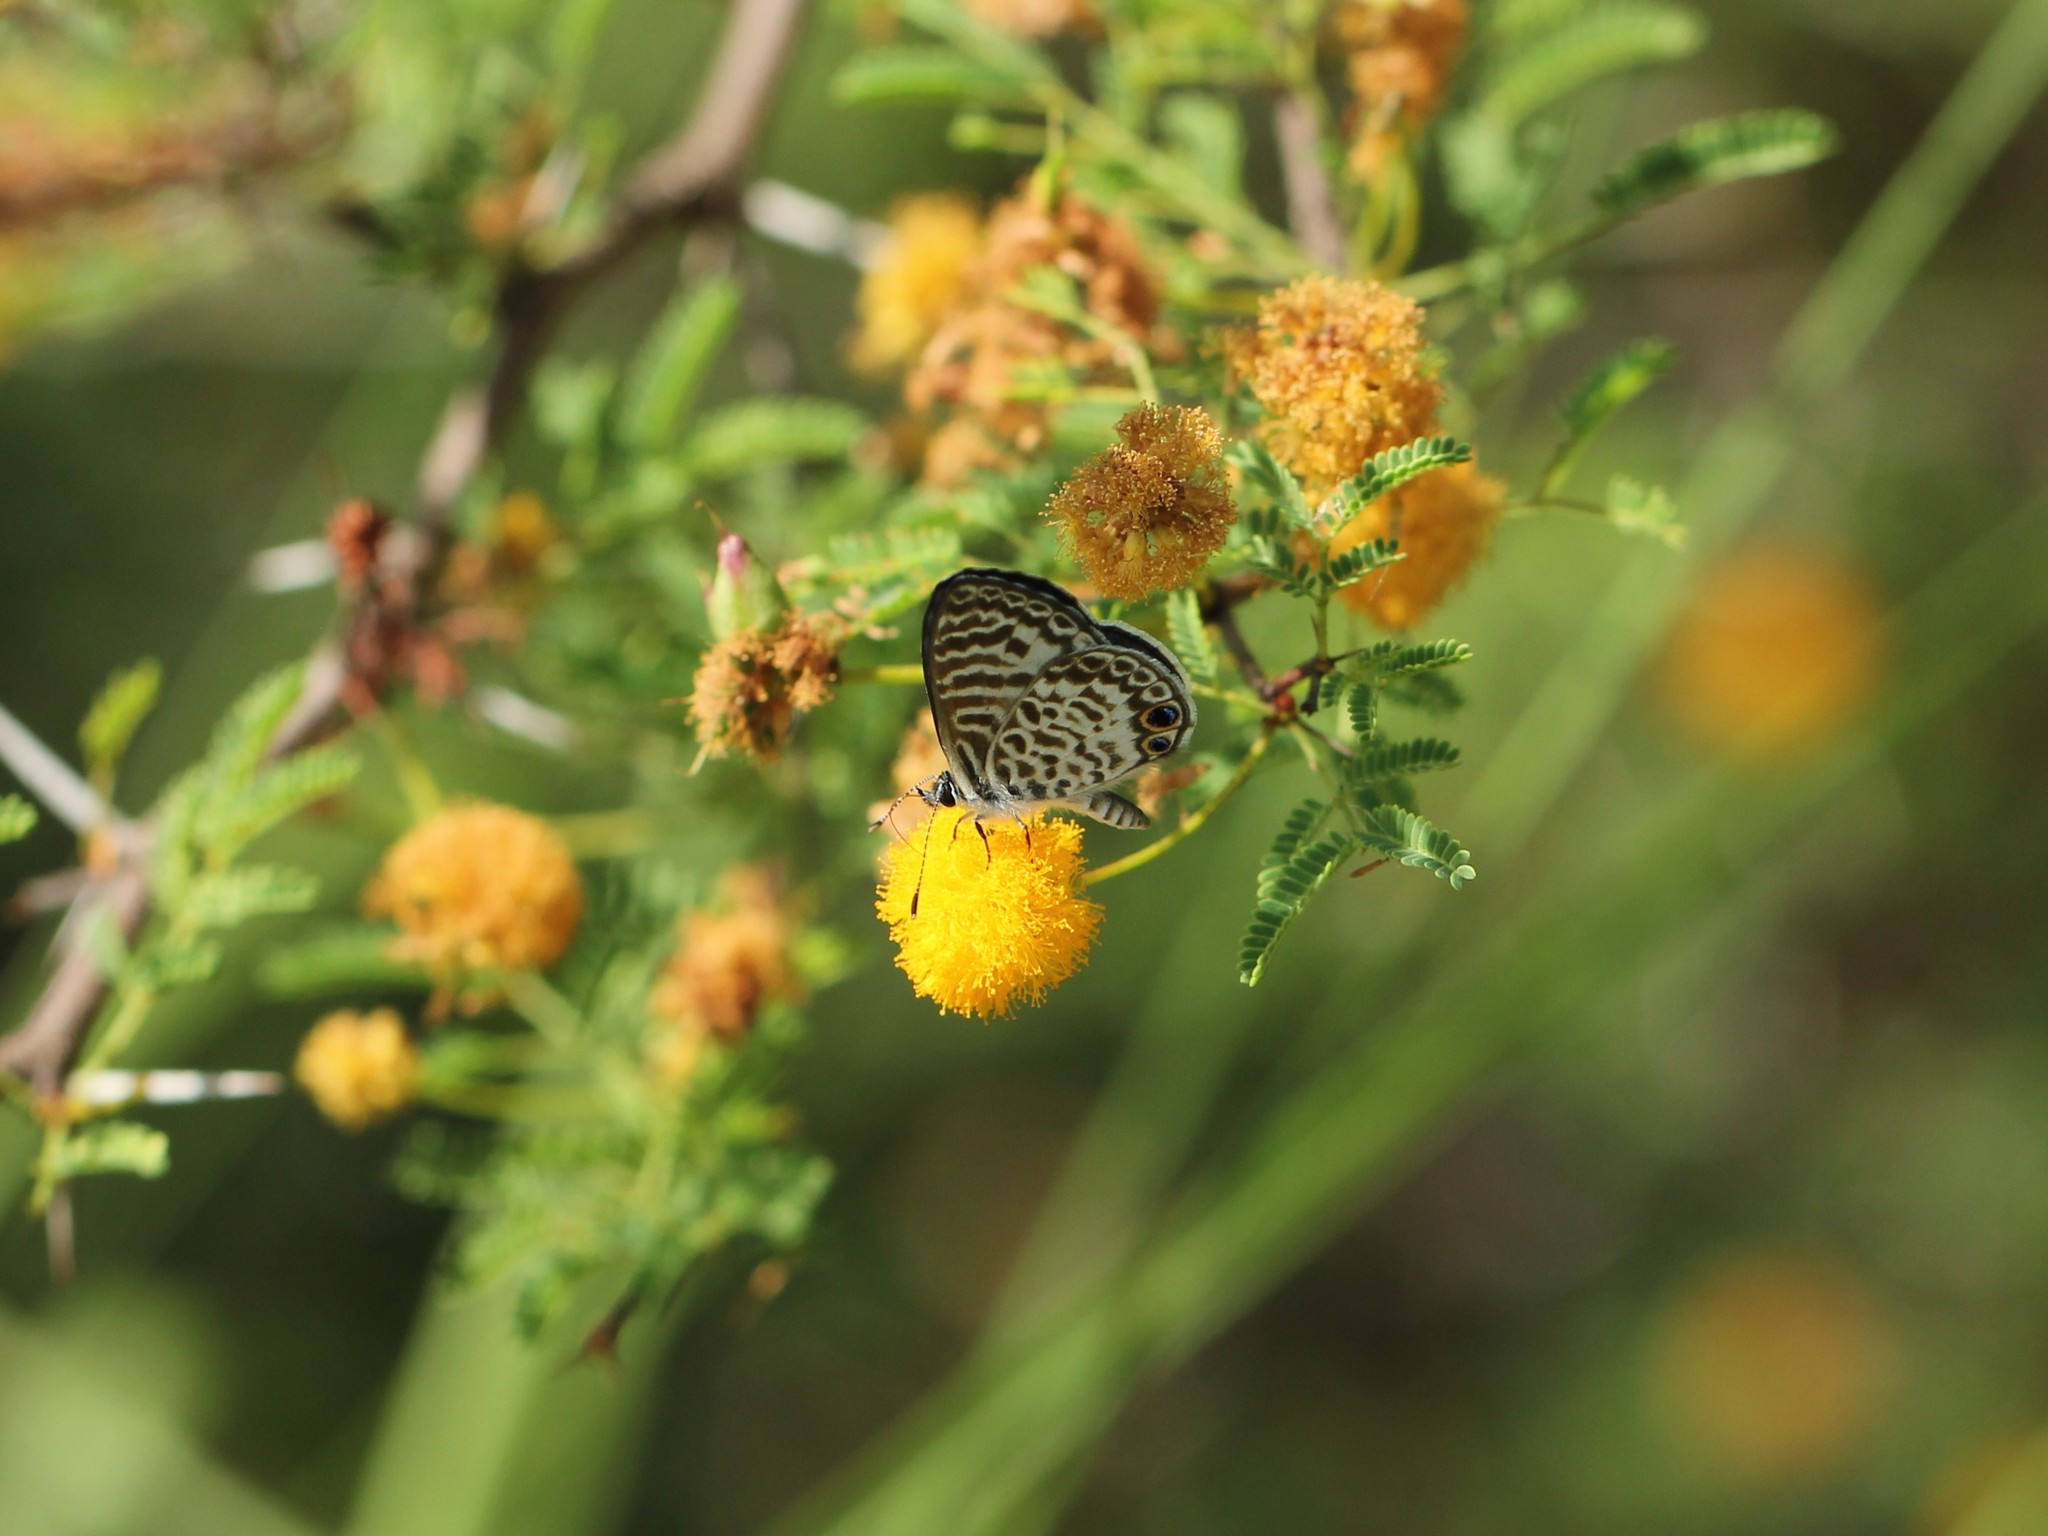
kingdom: Animalia
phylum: Arthropoda
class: Insecta
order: Lepidoptera
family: Lycaenidae
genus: Leptotes
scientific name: Leptotes cassius
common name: Cassius blue
